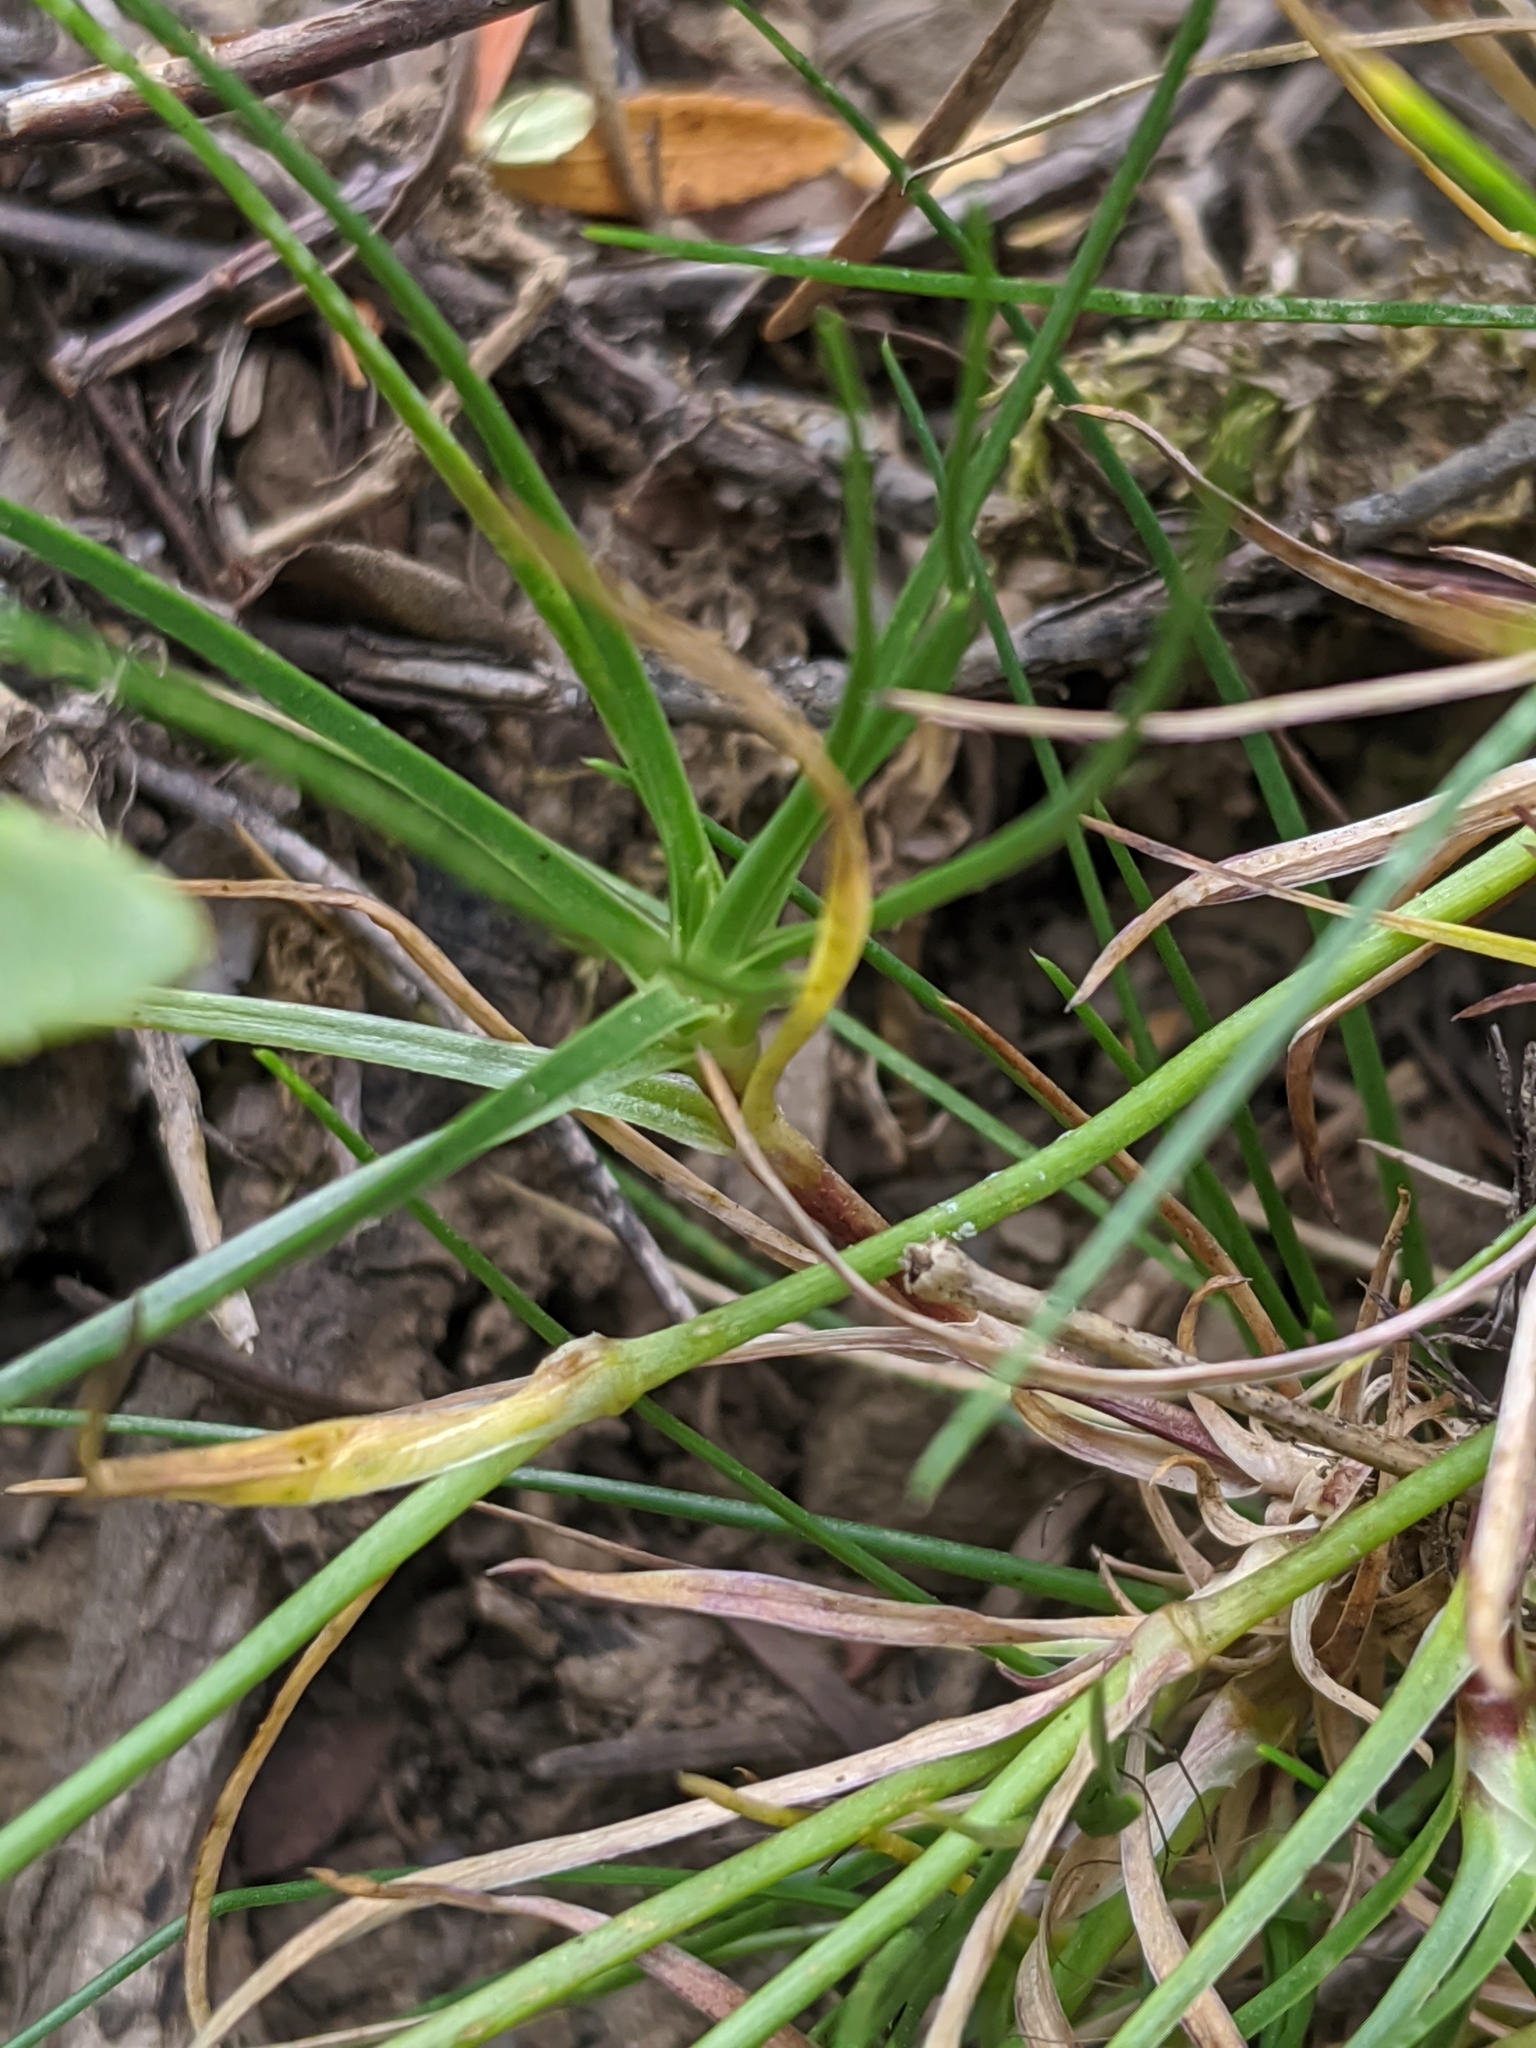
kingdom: Plantae
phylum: Tracheophyta
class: Magnoliopsida
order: Caryophyllales
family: Caryophyllaceae
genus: Eremogone
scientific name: Eremogone capillaris
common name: Slender mountain sandwort
